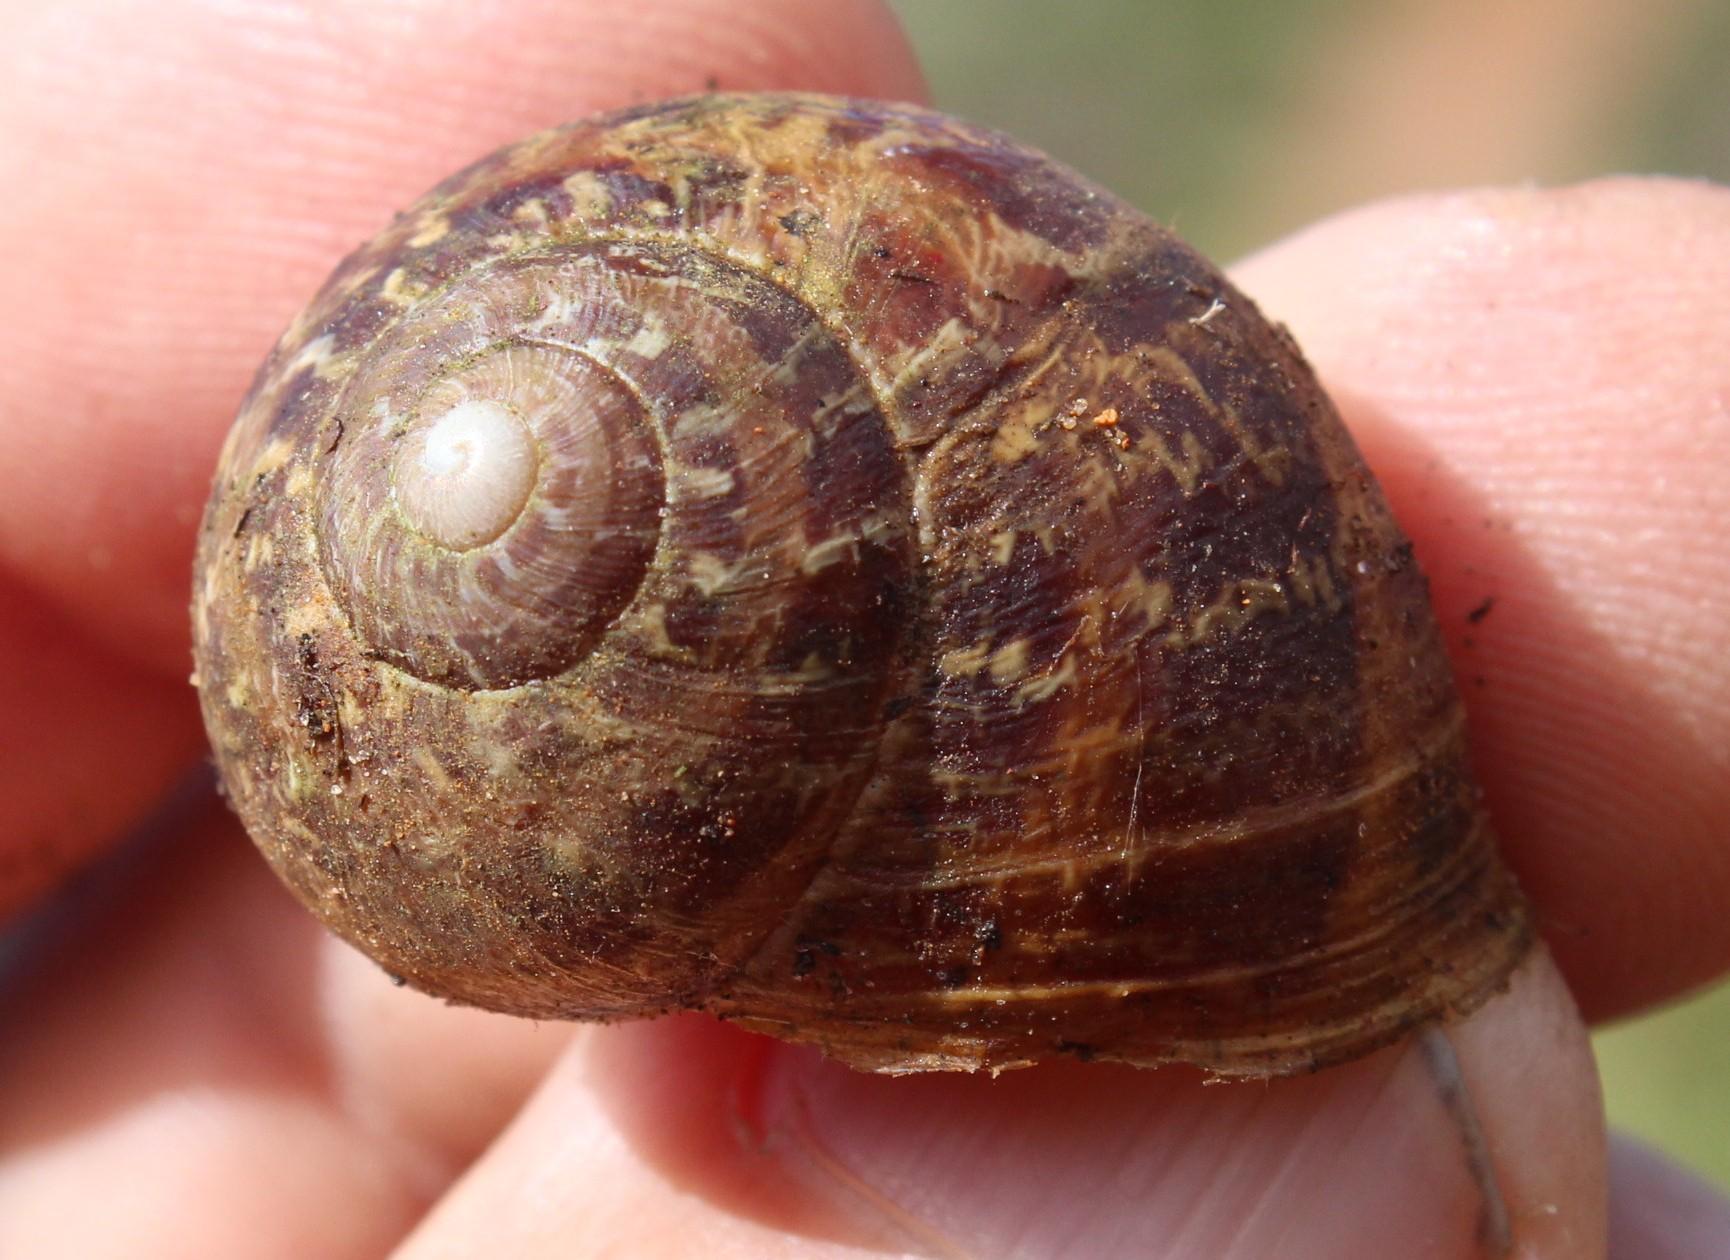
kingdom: Animalia
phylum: Mollusca
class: Gastropoda
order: Stylommatophora
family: Helicidae
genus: Cornu
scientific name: Cornu aspersum
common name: Brown garden snail
